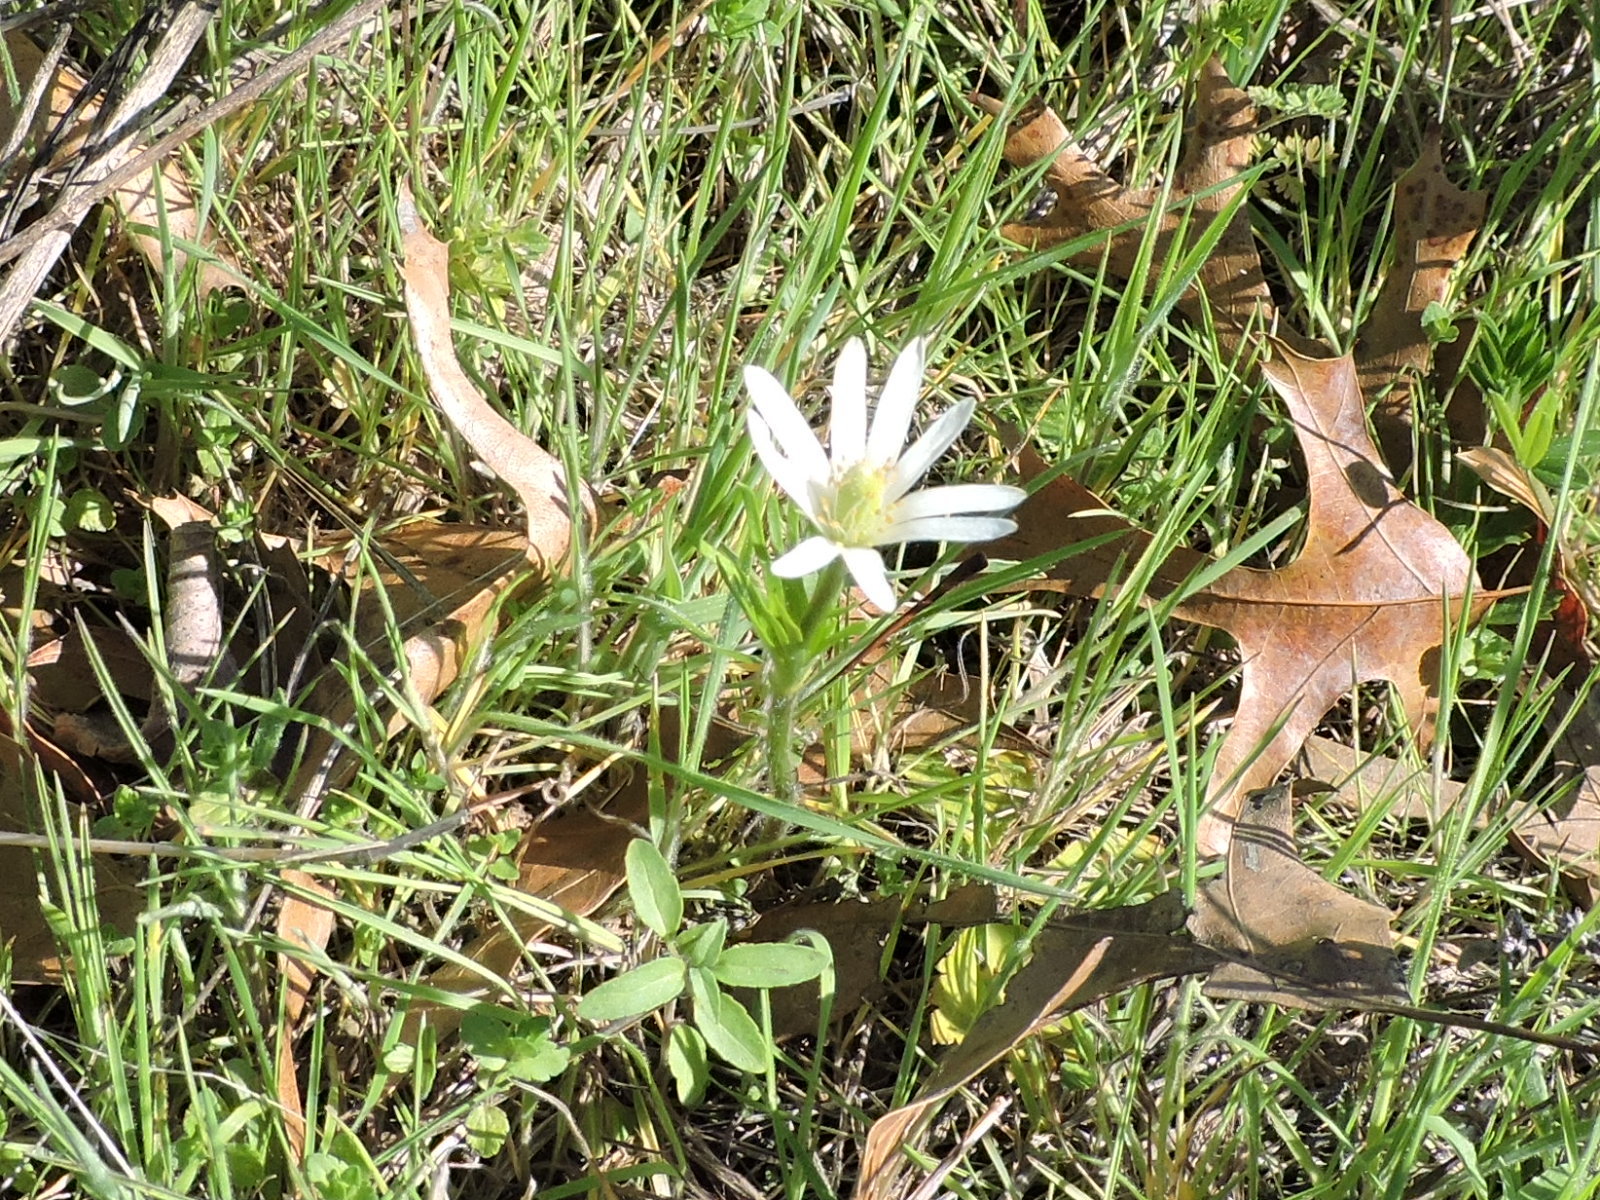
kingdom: Plantae
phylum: Tracheophyta
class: Magnoliopsida
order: Ranunculales
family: Ranunculaceae
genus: Anemone
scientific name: Anemone berlandieri
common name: Ten-petal anemone
